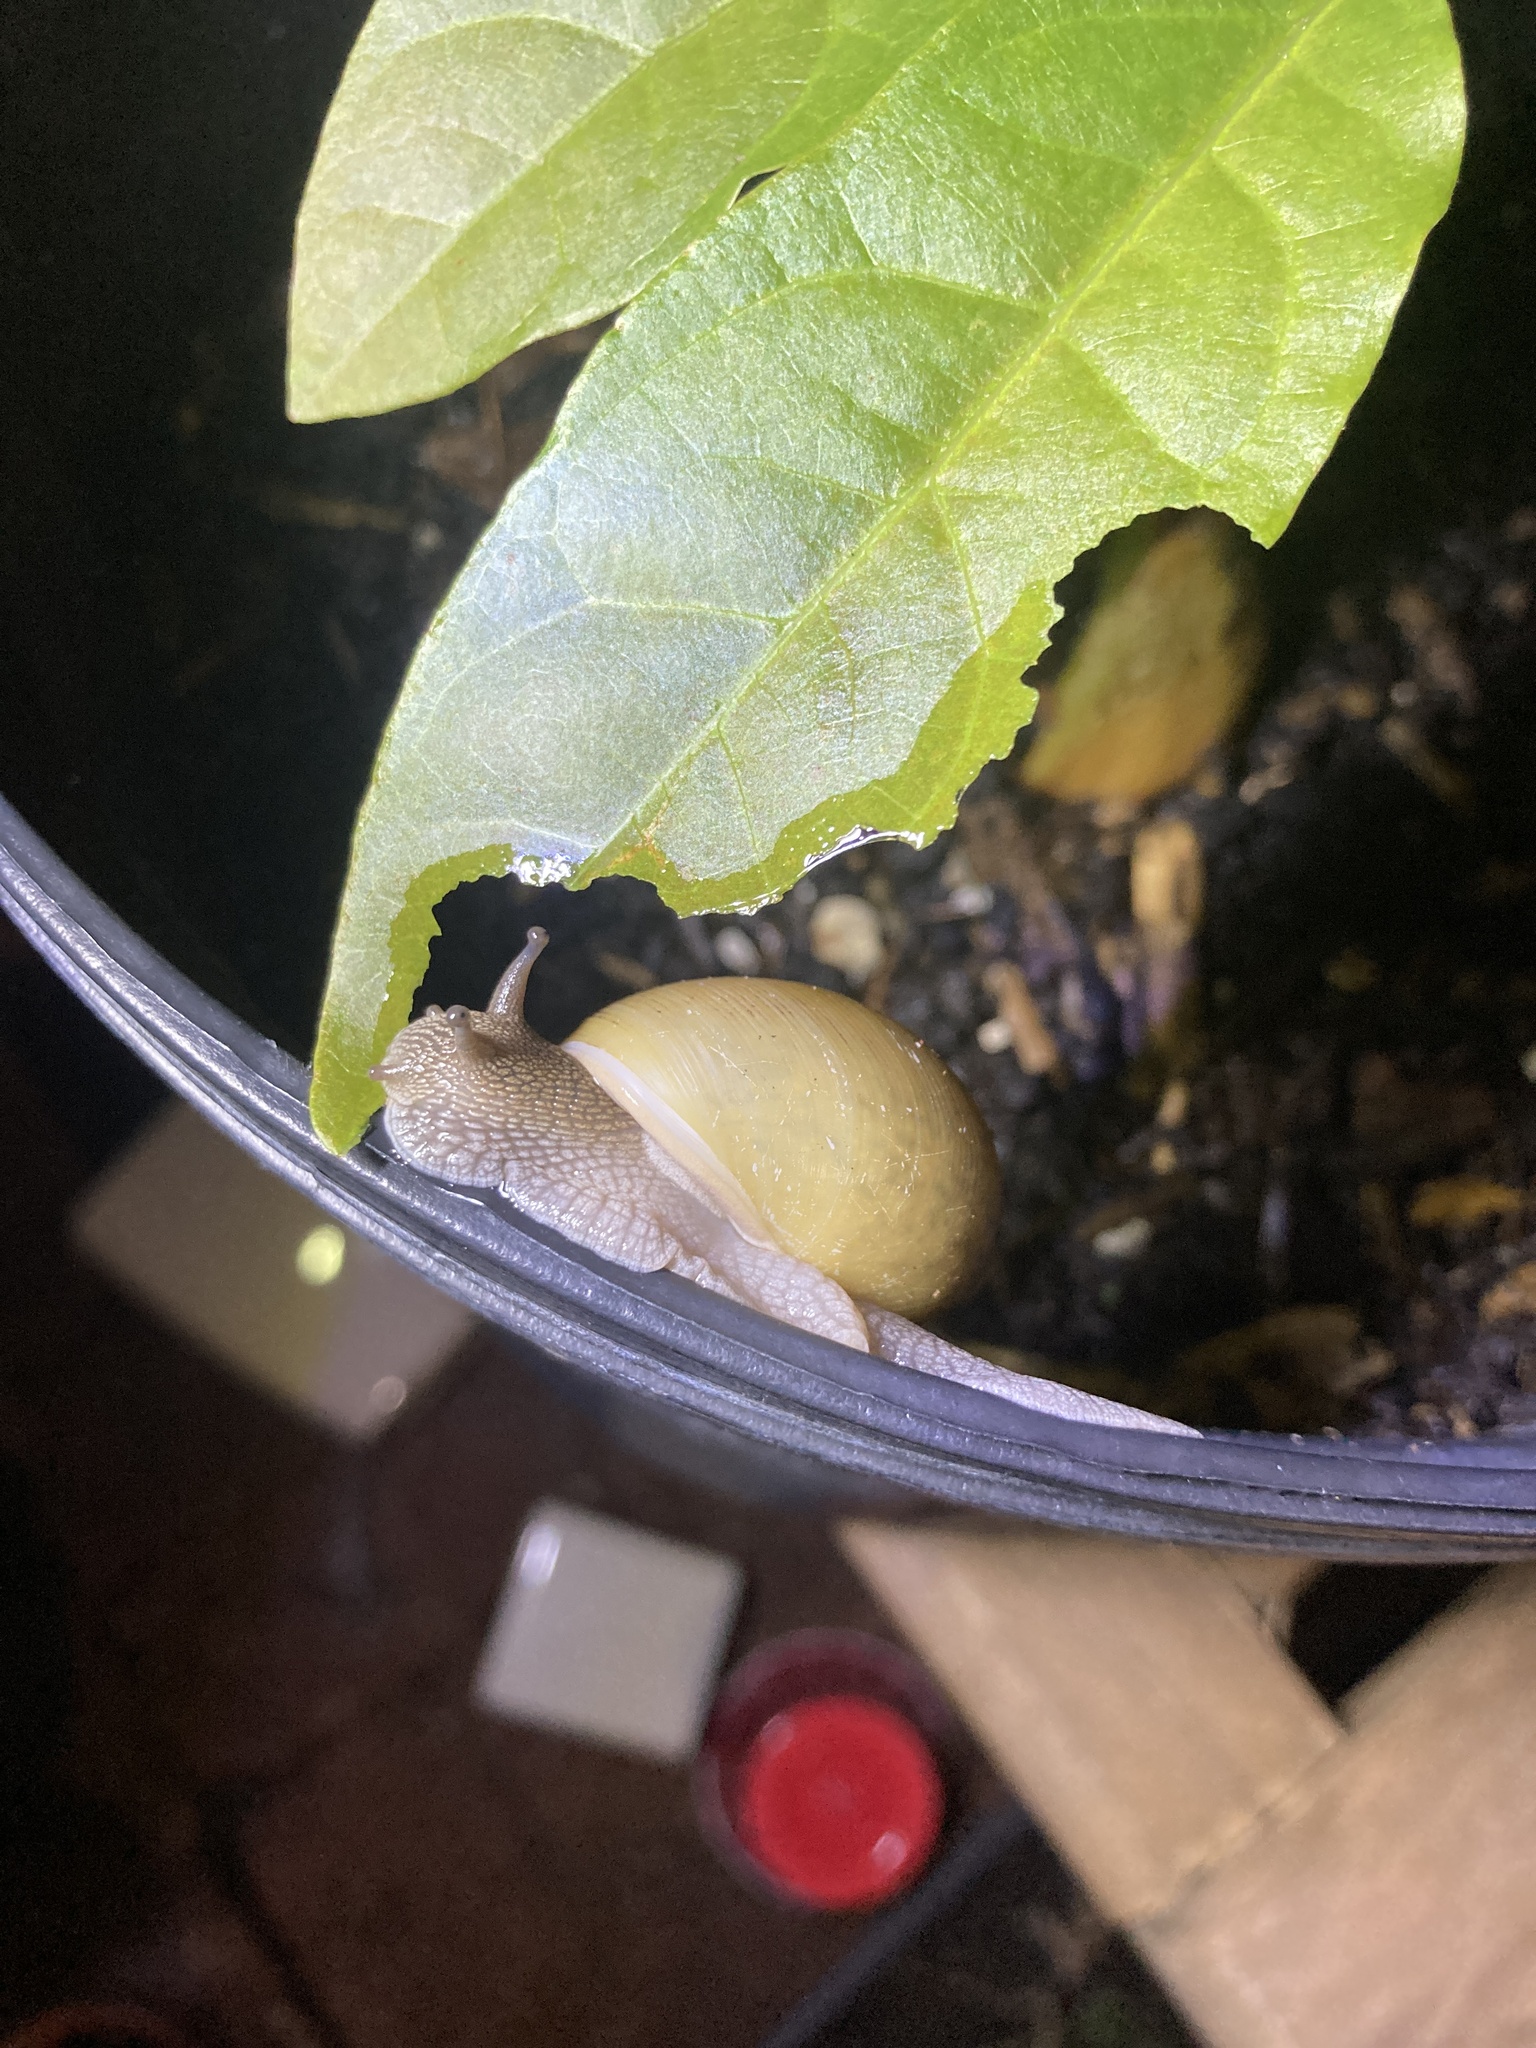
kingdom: Animalia
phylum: Mollusca
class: Gastropoda
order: Stylommatophora
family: Zachrysiidae
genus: Zachrysia
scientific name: Zachrysia provisoria
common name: Garden zachrysia
